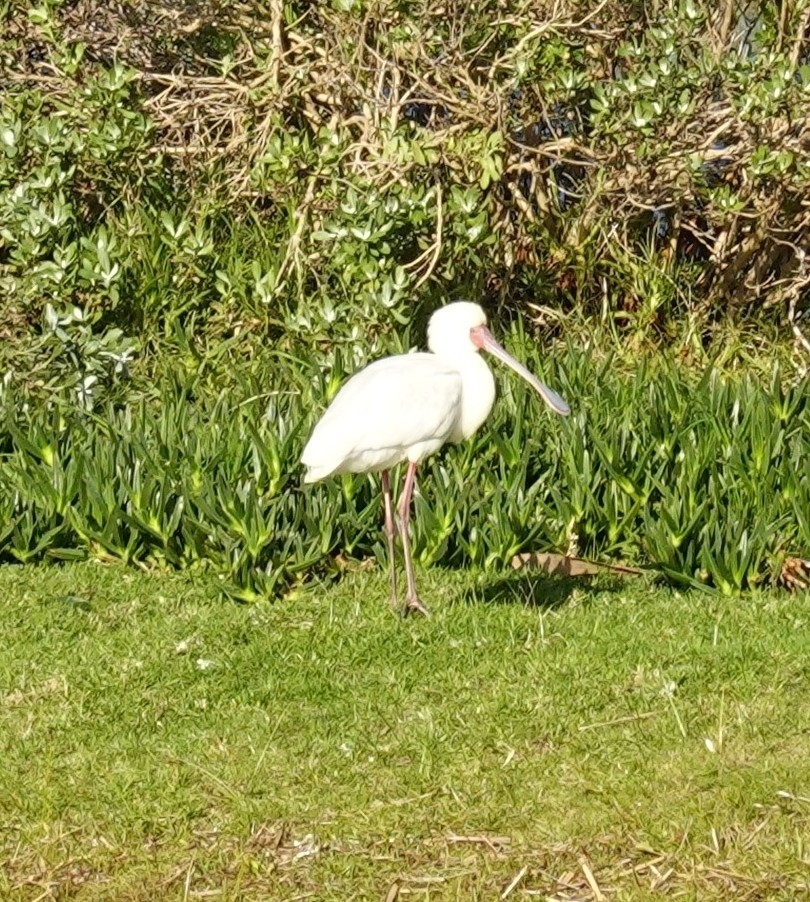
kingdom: Animalia
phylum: Chordata
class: Aves
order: Pelecaniformes
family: Threskiornithidae
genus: Platalea
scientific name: Platalea alba
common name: African spoonbill
